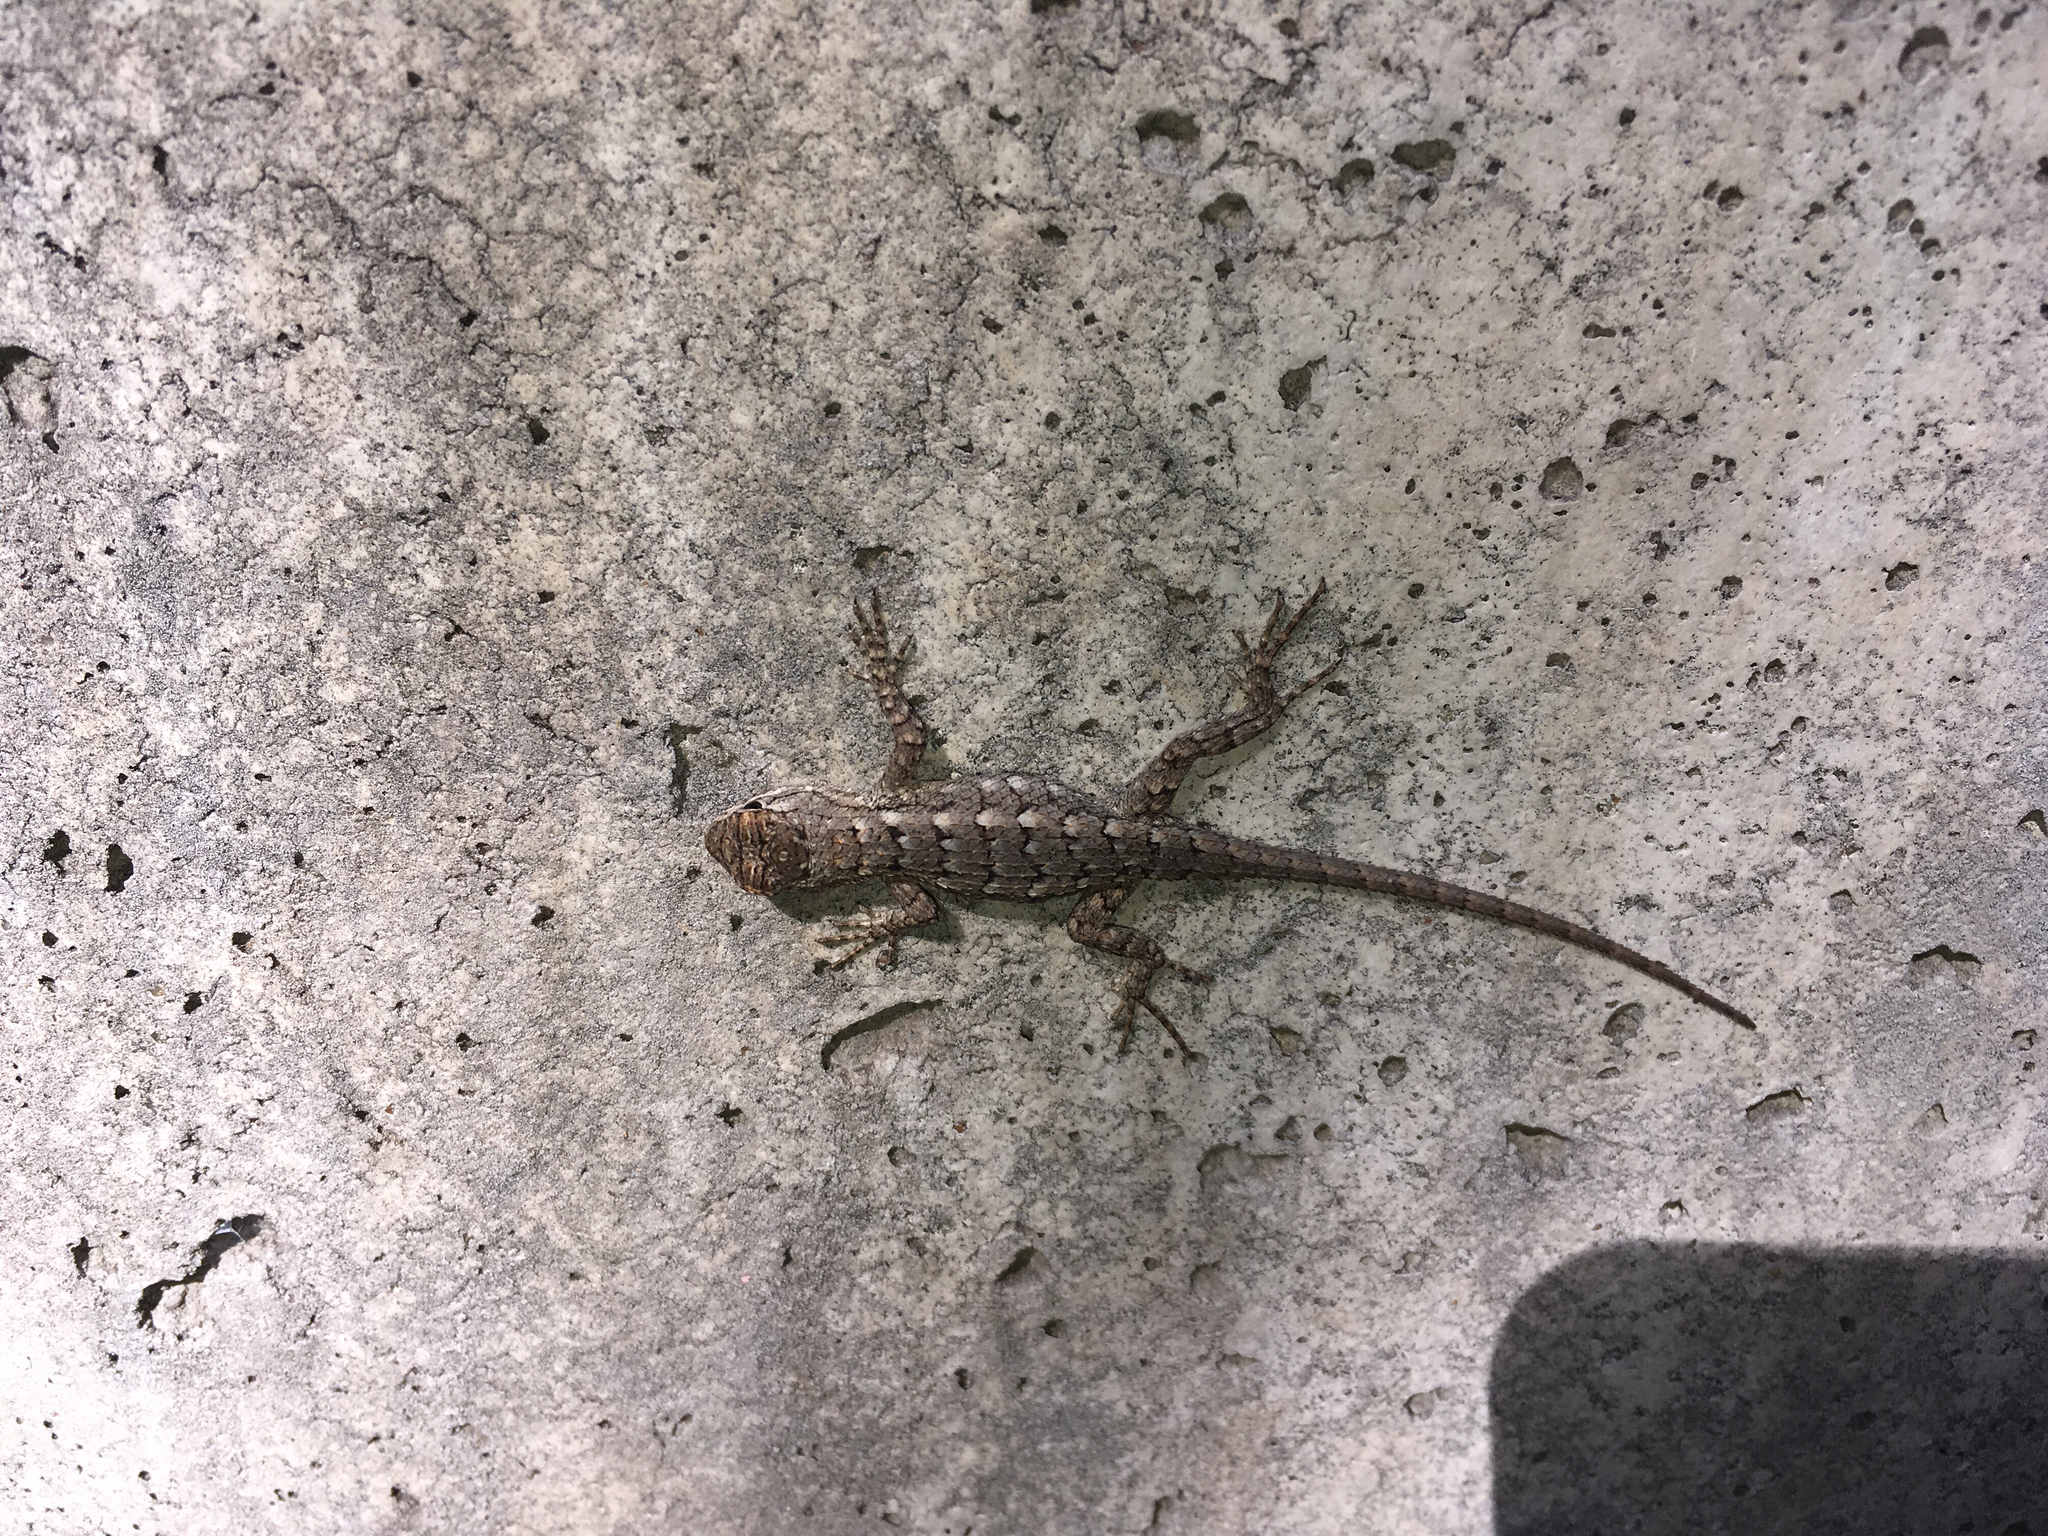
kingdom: Animalia
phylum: Chordata
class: Squamata
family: Phrynosomatidae
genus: Sceloporus
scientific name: Sceloporus olivaceus
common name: Texas spiny lizard
